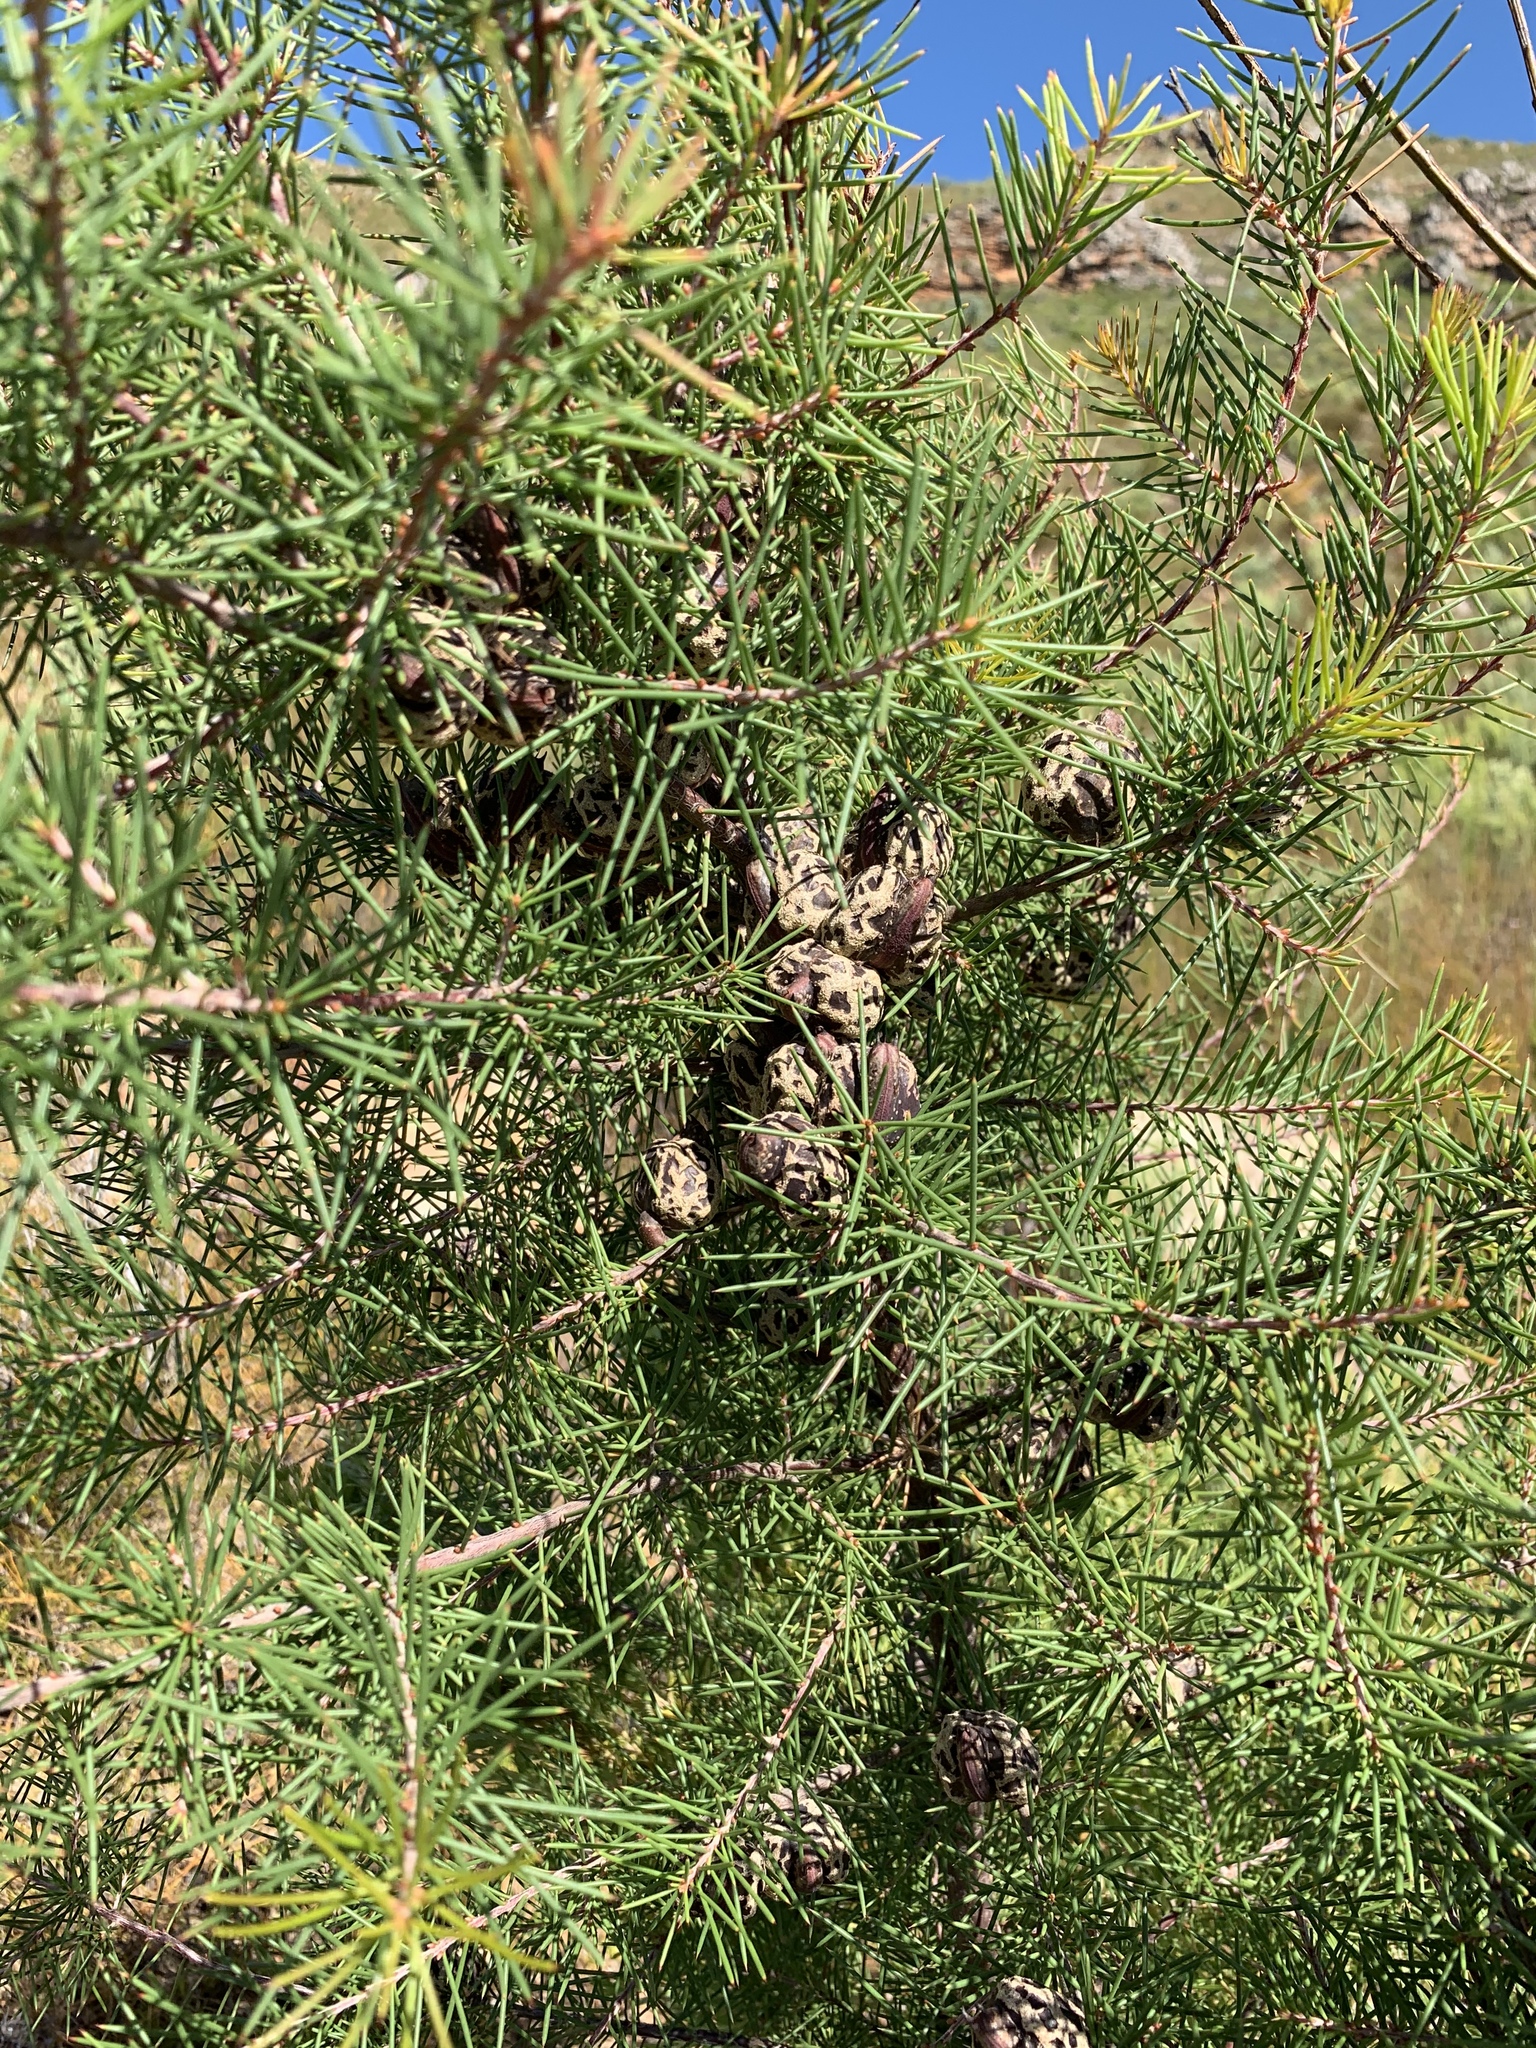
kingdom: Plantae
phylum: Tracheophyta
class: Magnoliopsida
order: Proteales
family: Proteaceae
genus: Hakea
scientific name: Hakea sericea
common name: Needle bush
